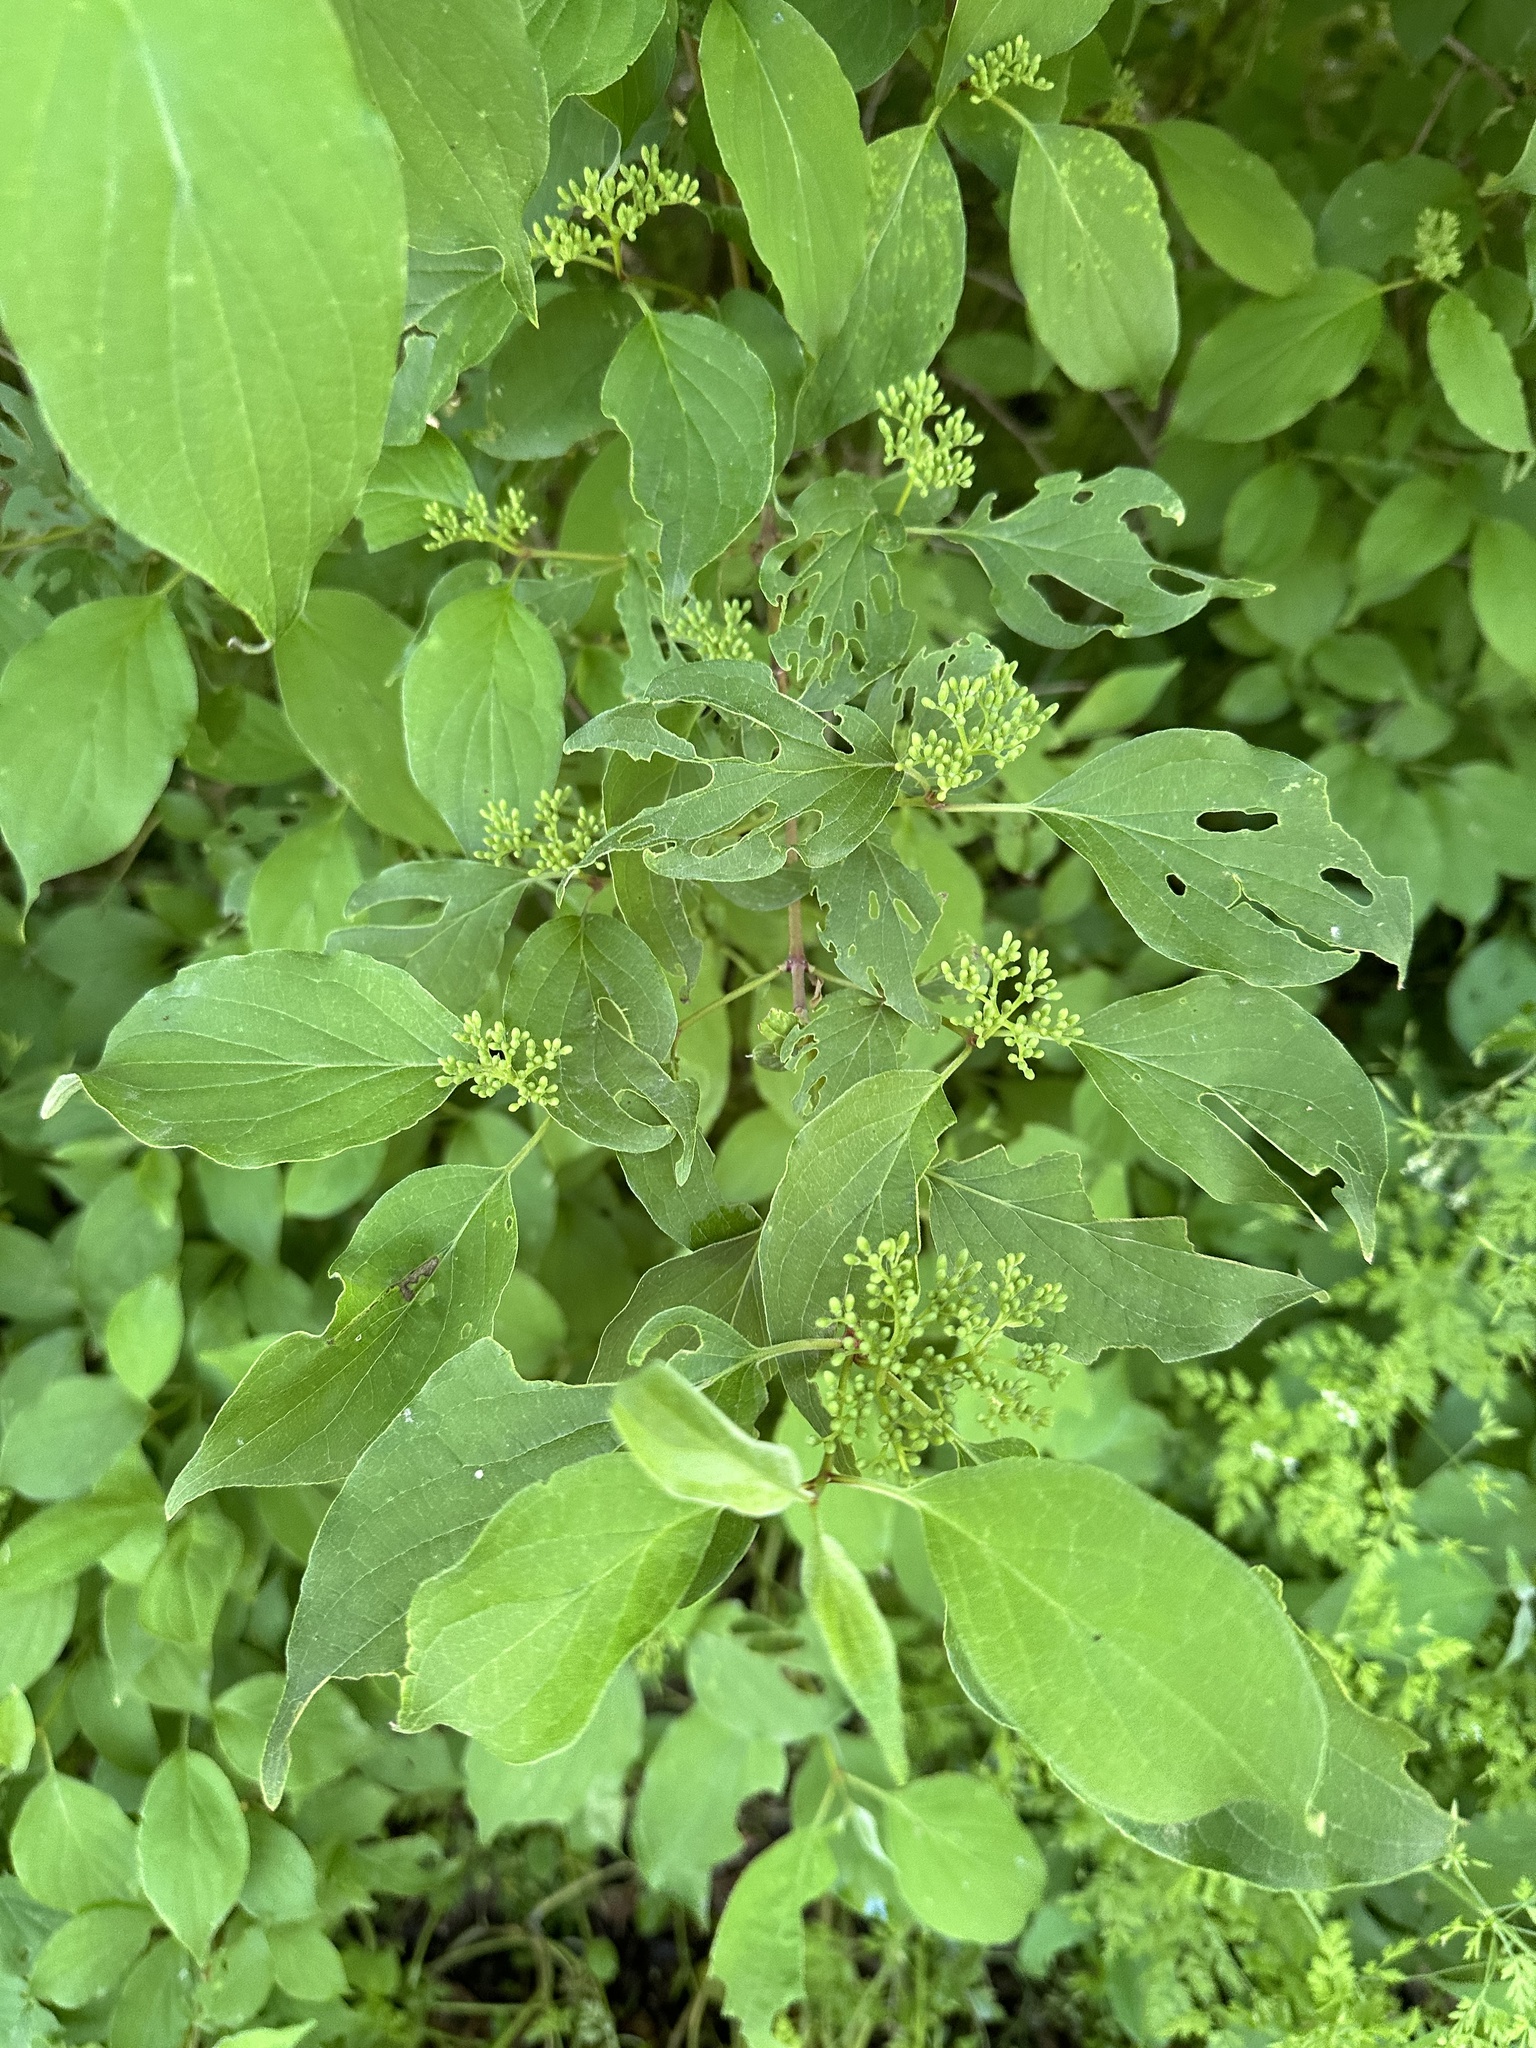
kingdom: Plantae
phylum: Tracheophyta
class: Magnoliopsida
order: Cornales
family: Cornaceae
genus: Cornus
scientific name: Cornus drummondii
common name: Rough-leaf dogwood
